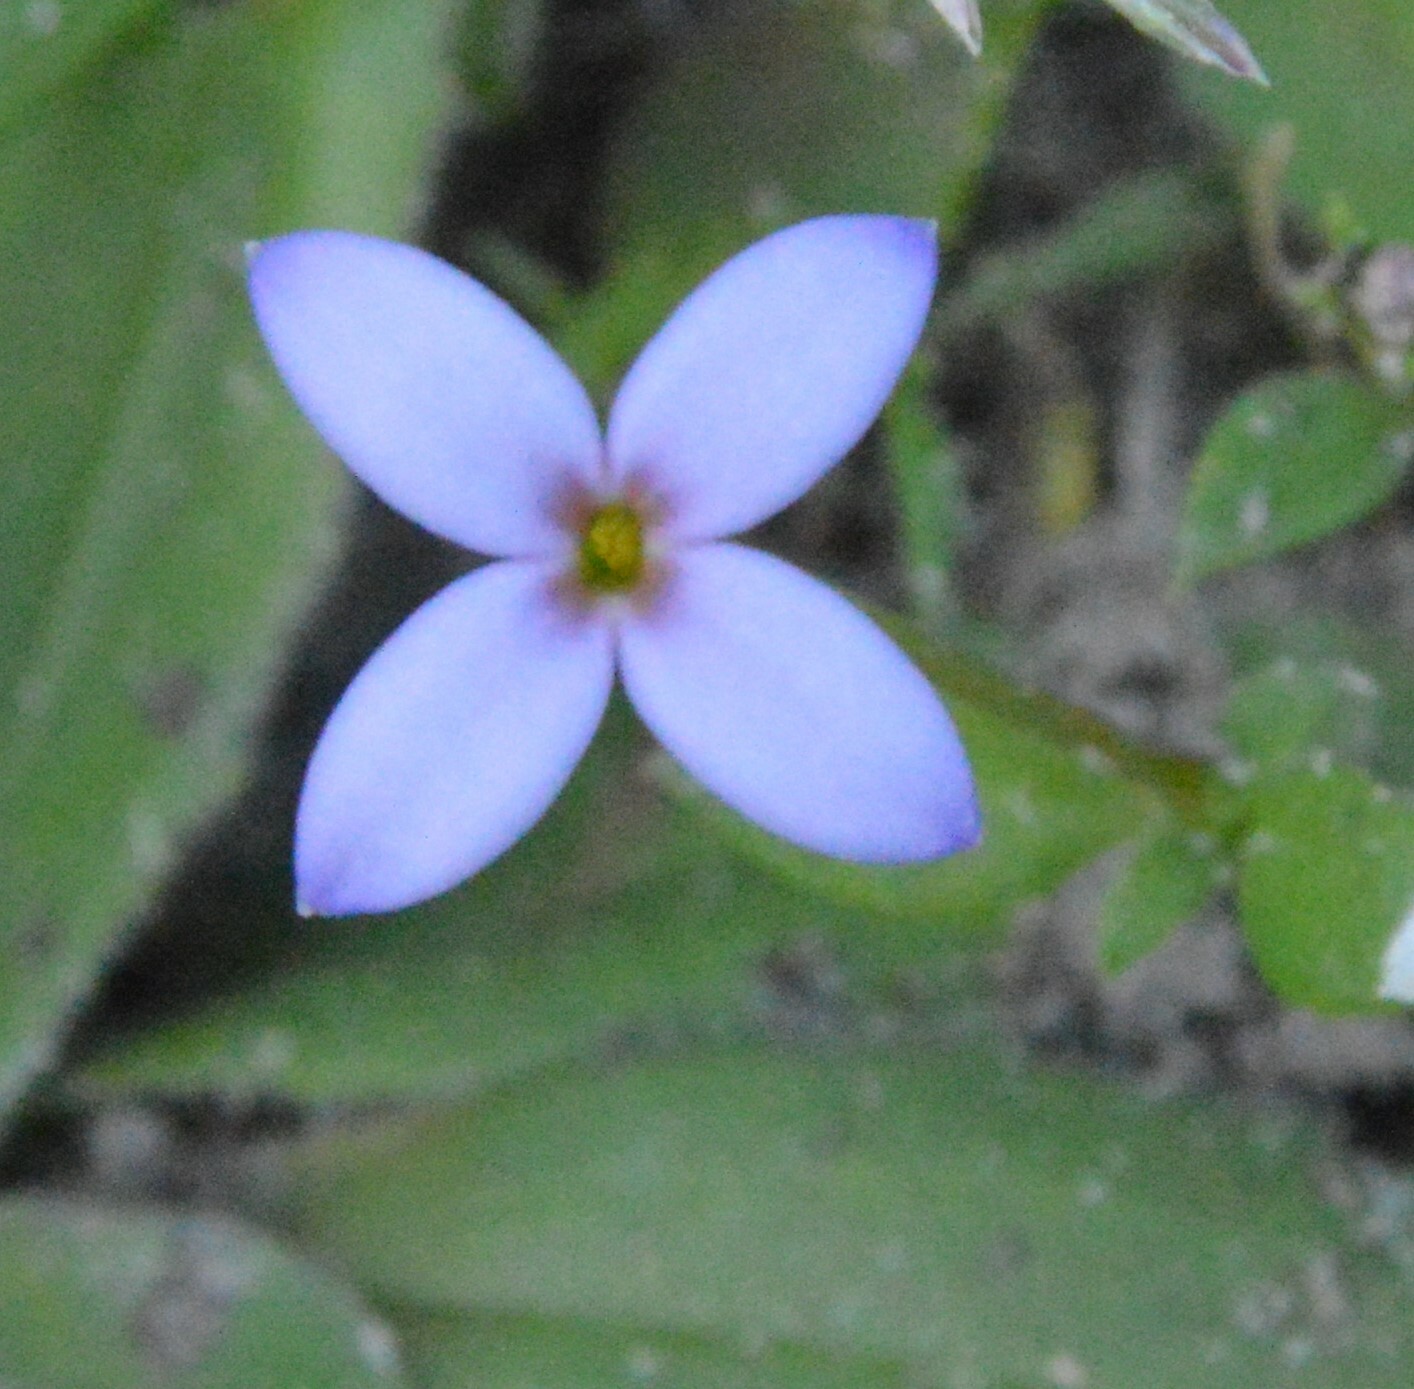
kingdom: Plantae
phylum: Tracheophyta
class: Magnoliopsida
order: Gentianales
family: Rubiaceae
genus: Houstonia
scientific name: Houstonia pusilla
